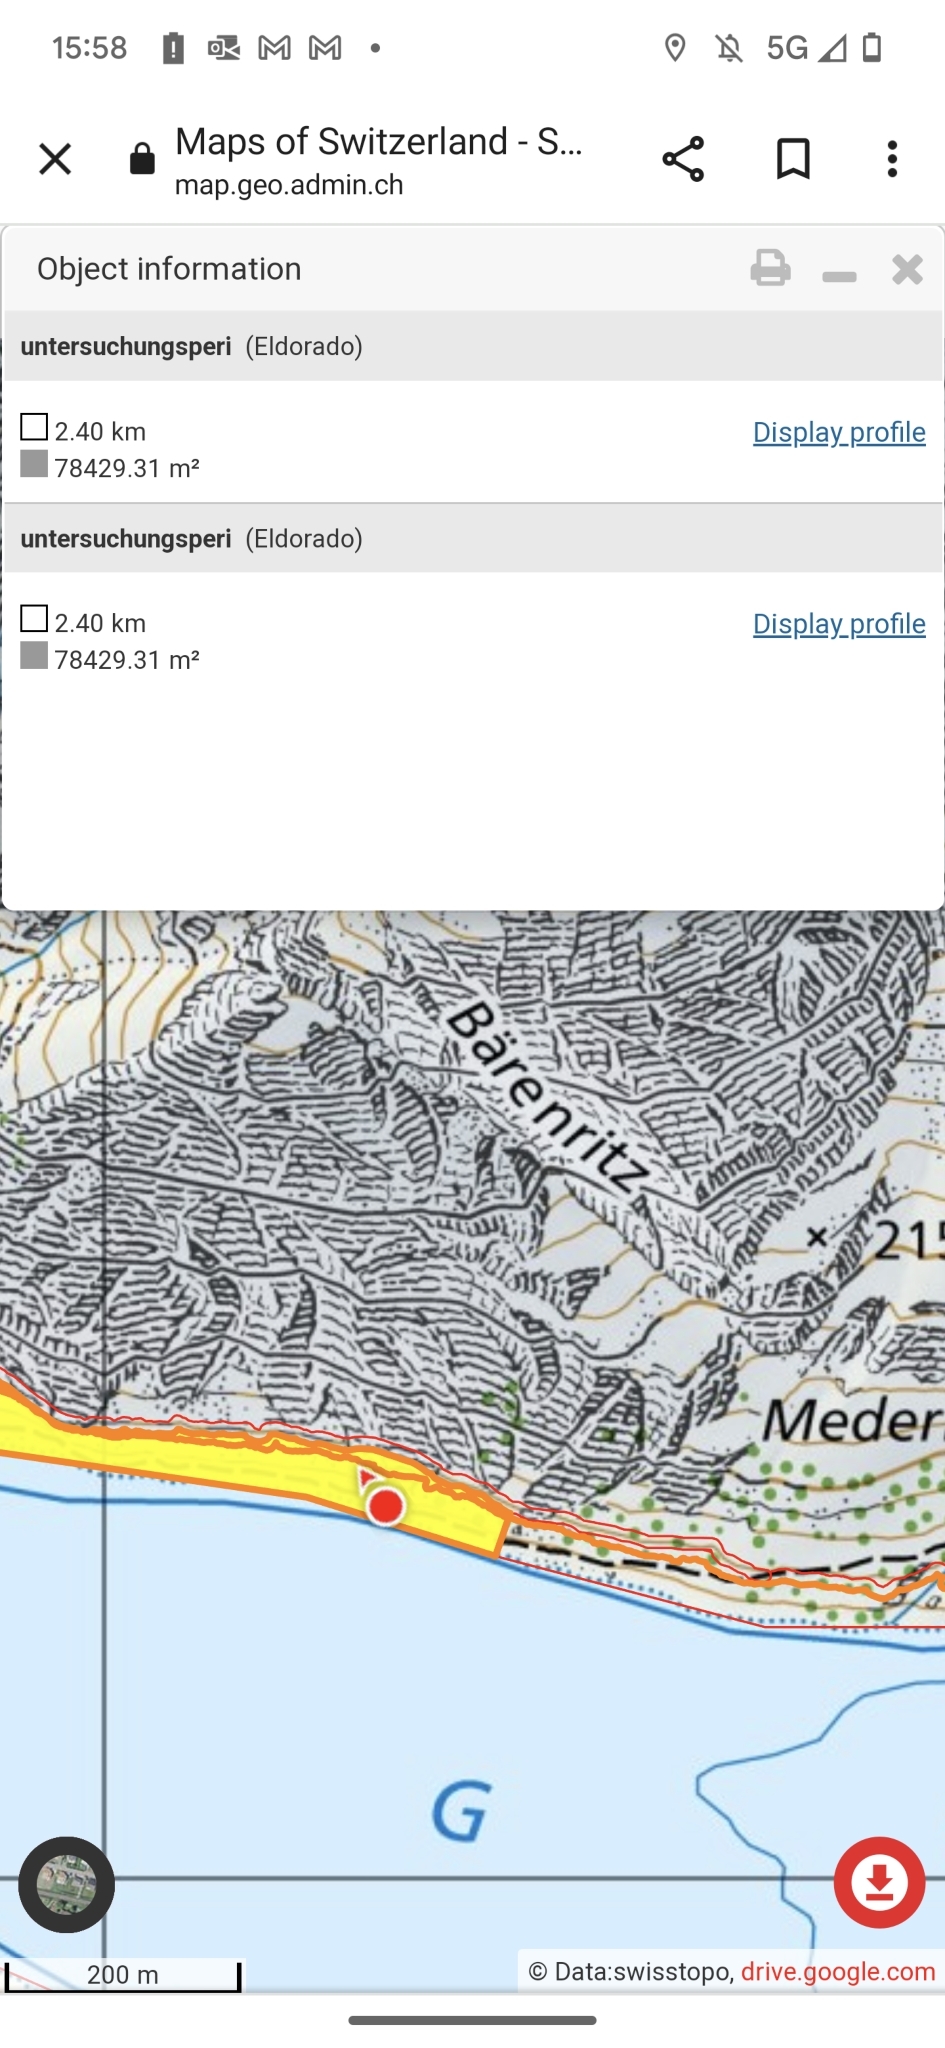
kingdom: Animalia
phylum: Arthropoda
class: Insecta
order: Hymenoptera
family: Formicidae
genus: Formica
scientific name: Formica
